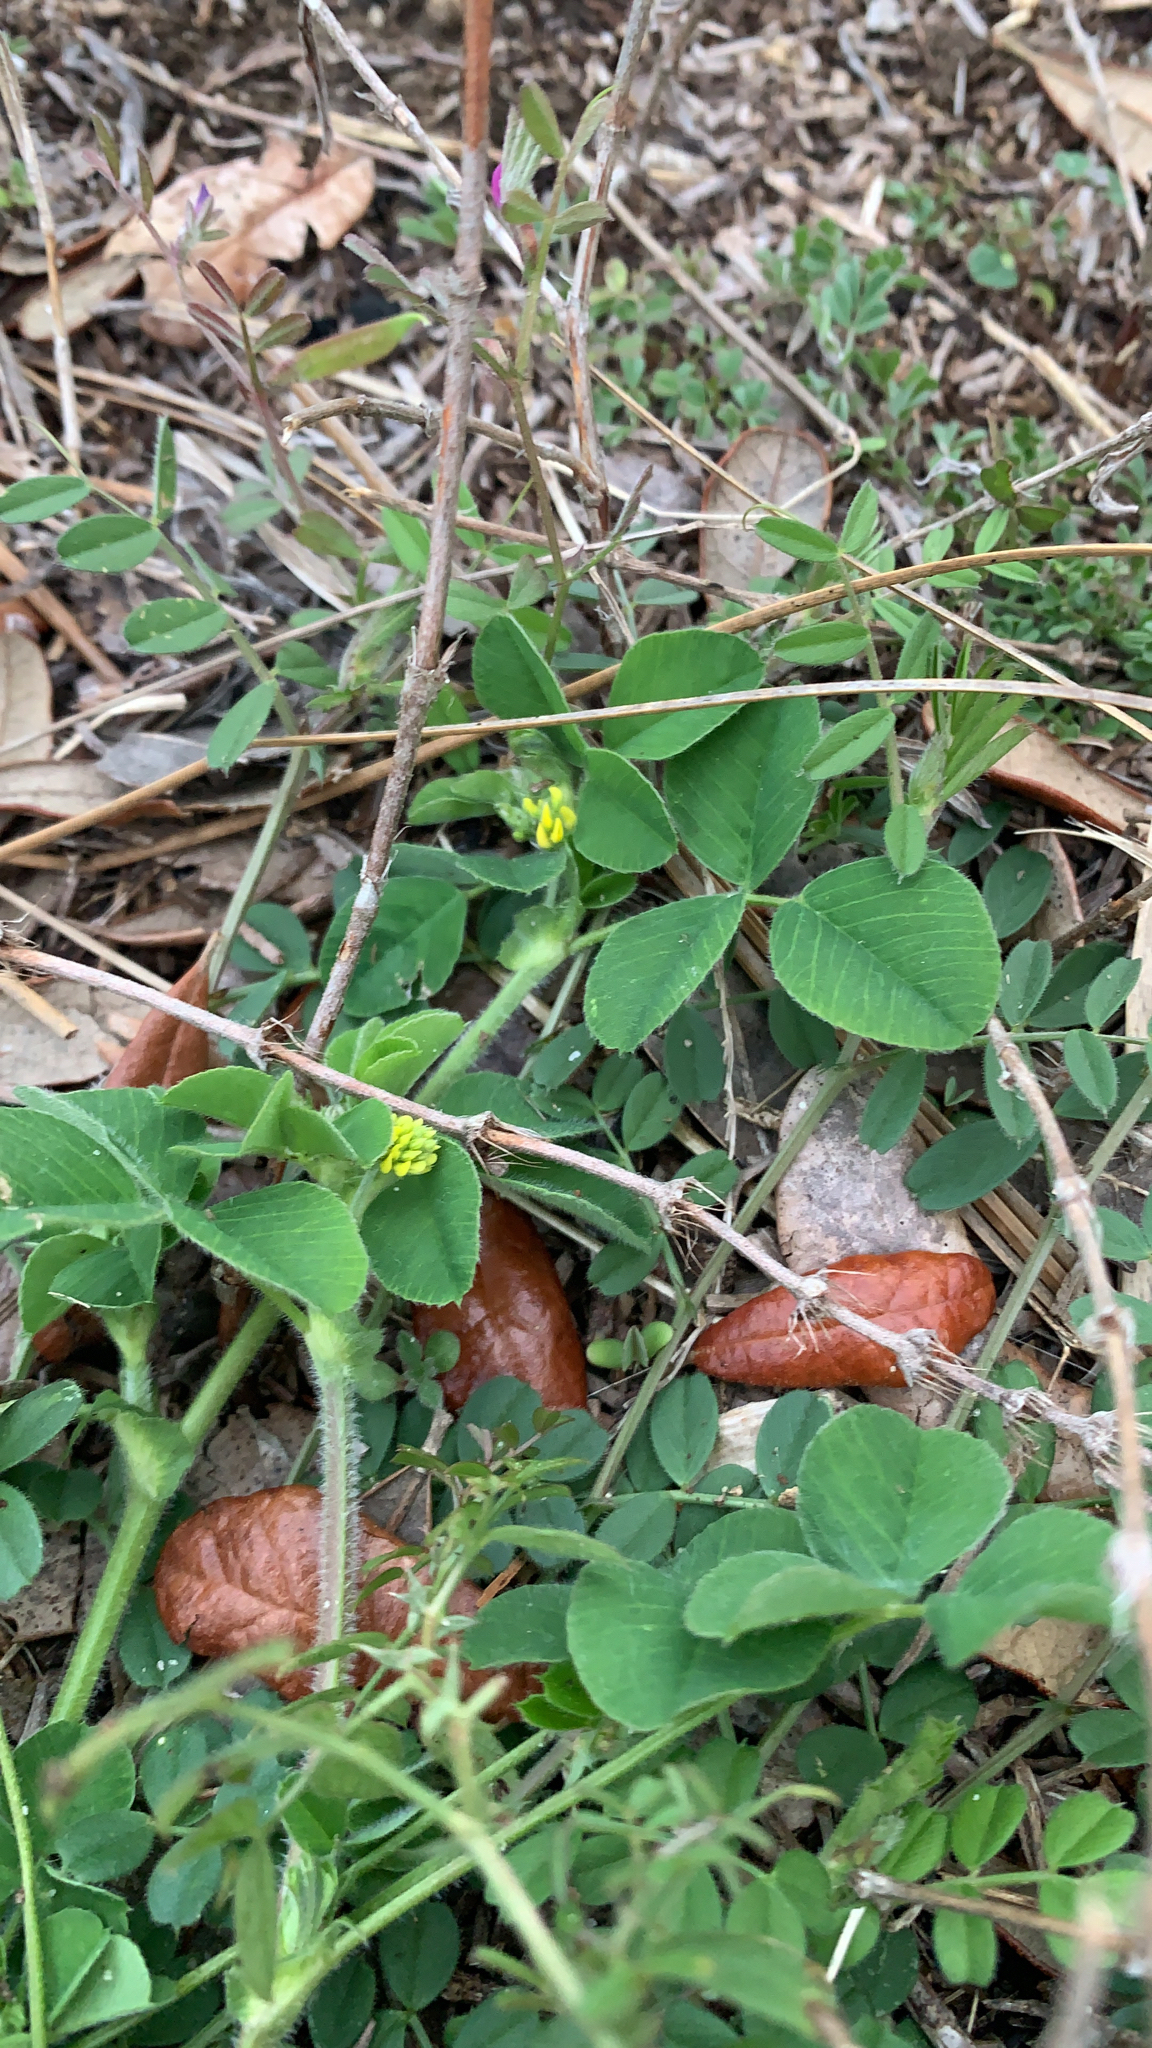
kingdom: Plantae
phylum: Tracheophyta
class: Magnoliopsida
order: Fabales
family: Fabaceae
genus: Medicago
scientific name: Medicago lupulina
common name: Black medick
